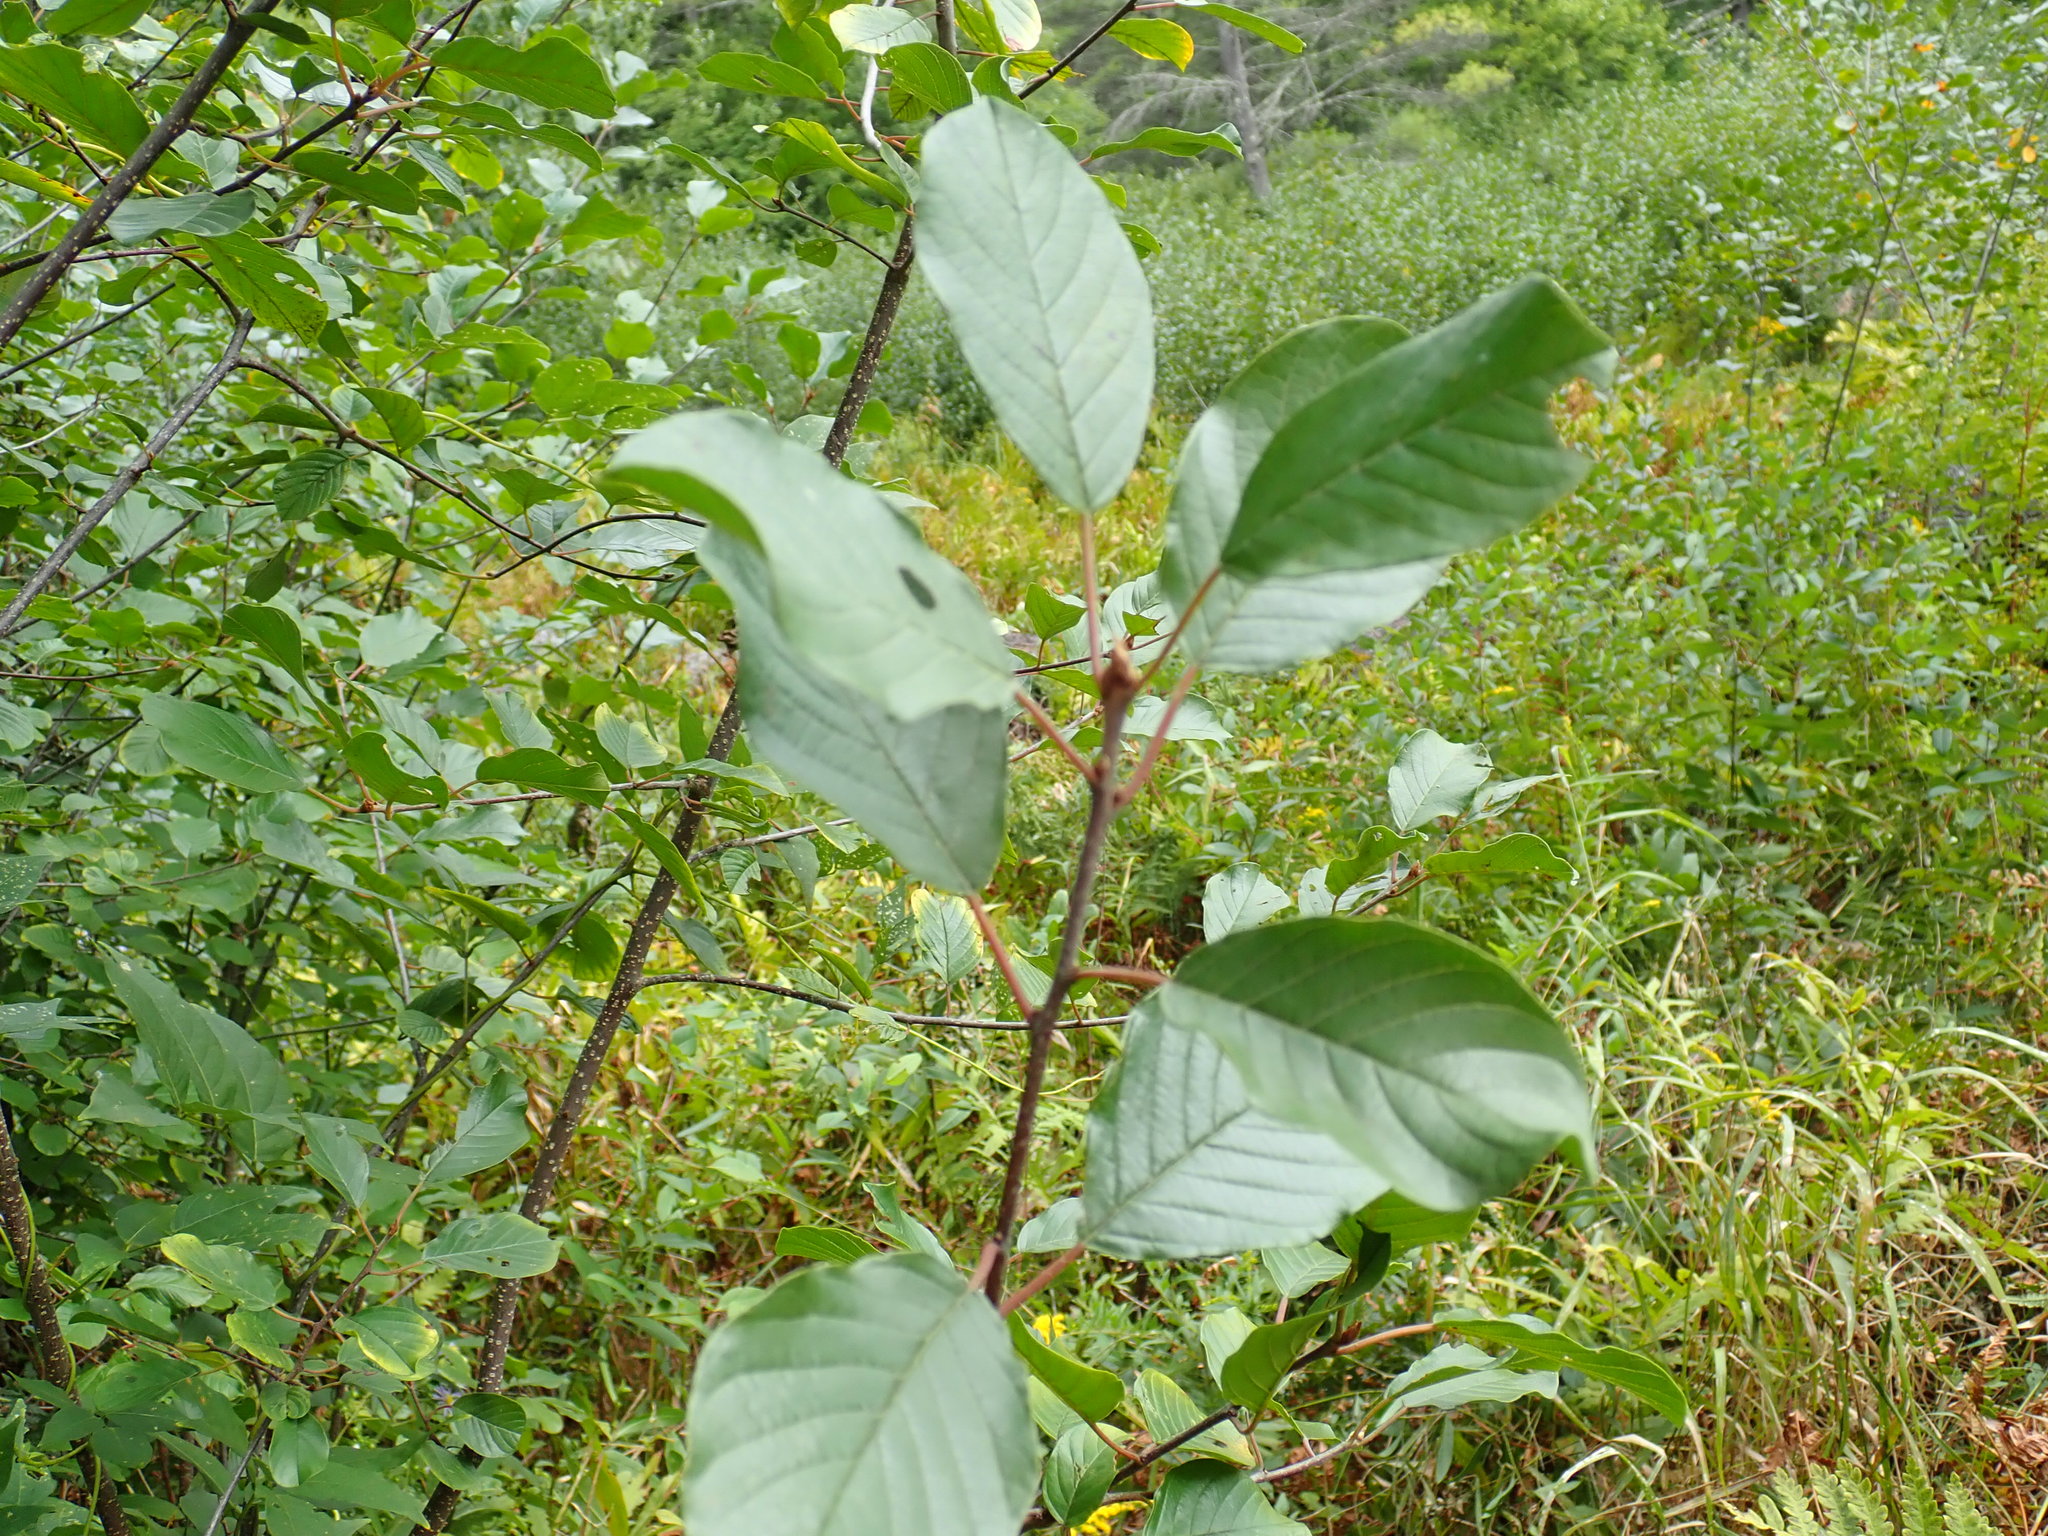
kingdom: Plantae
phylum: Tracheophyta
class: Magnoliopsida
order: Rosales
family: Rhamnaceae
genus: Frangula
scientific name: Frangula alnus
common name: Alder buckthorn
